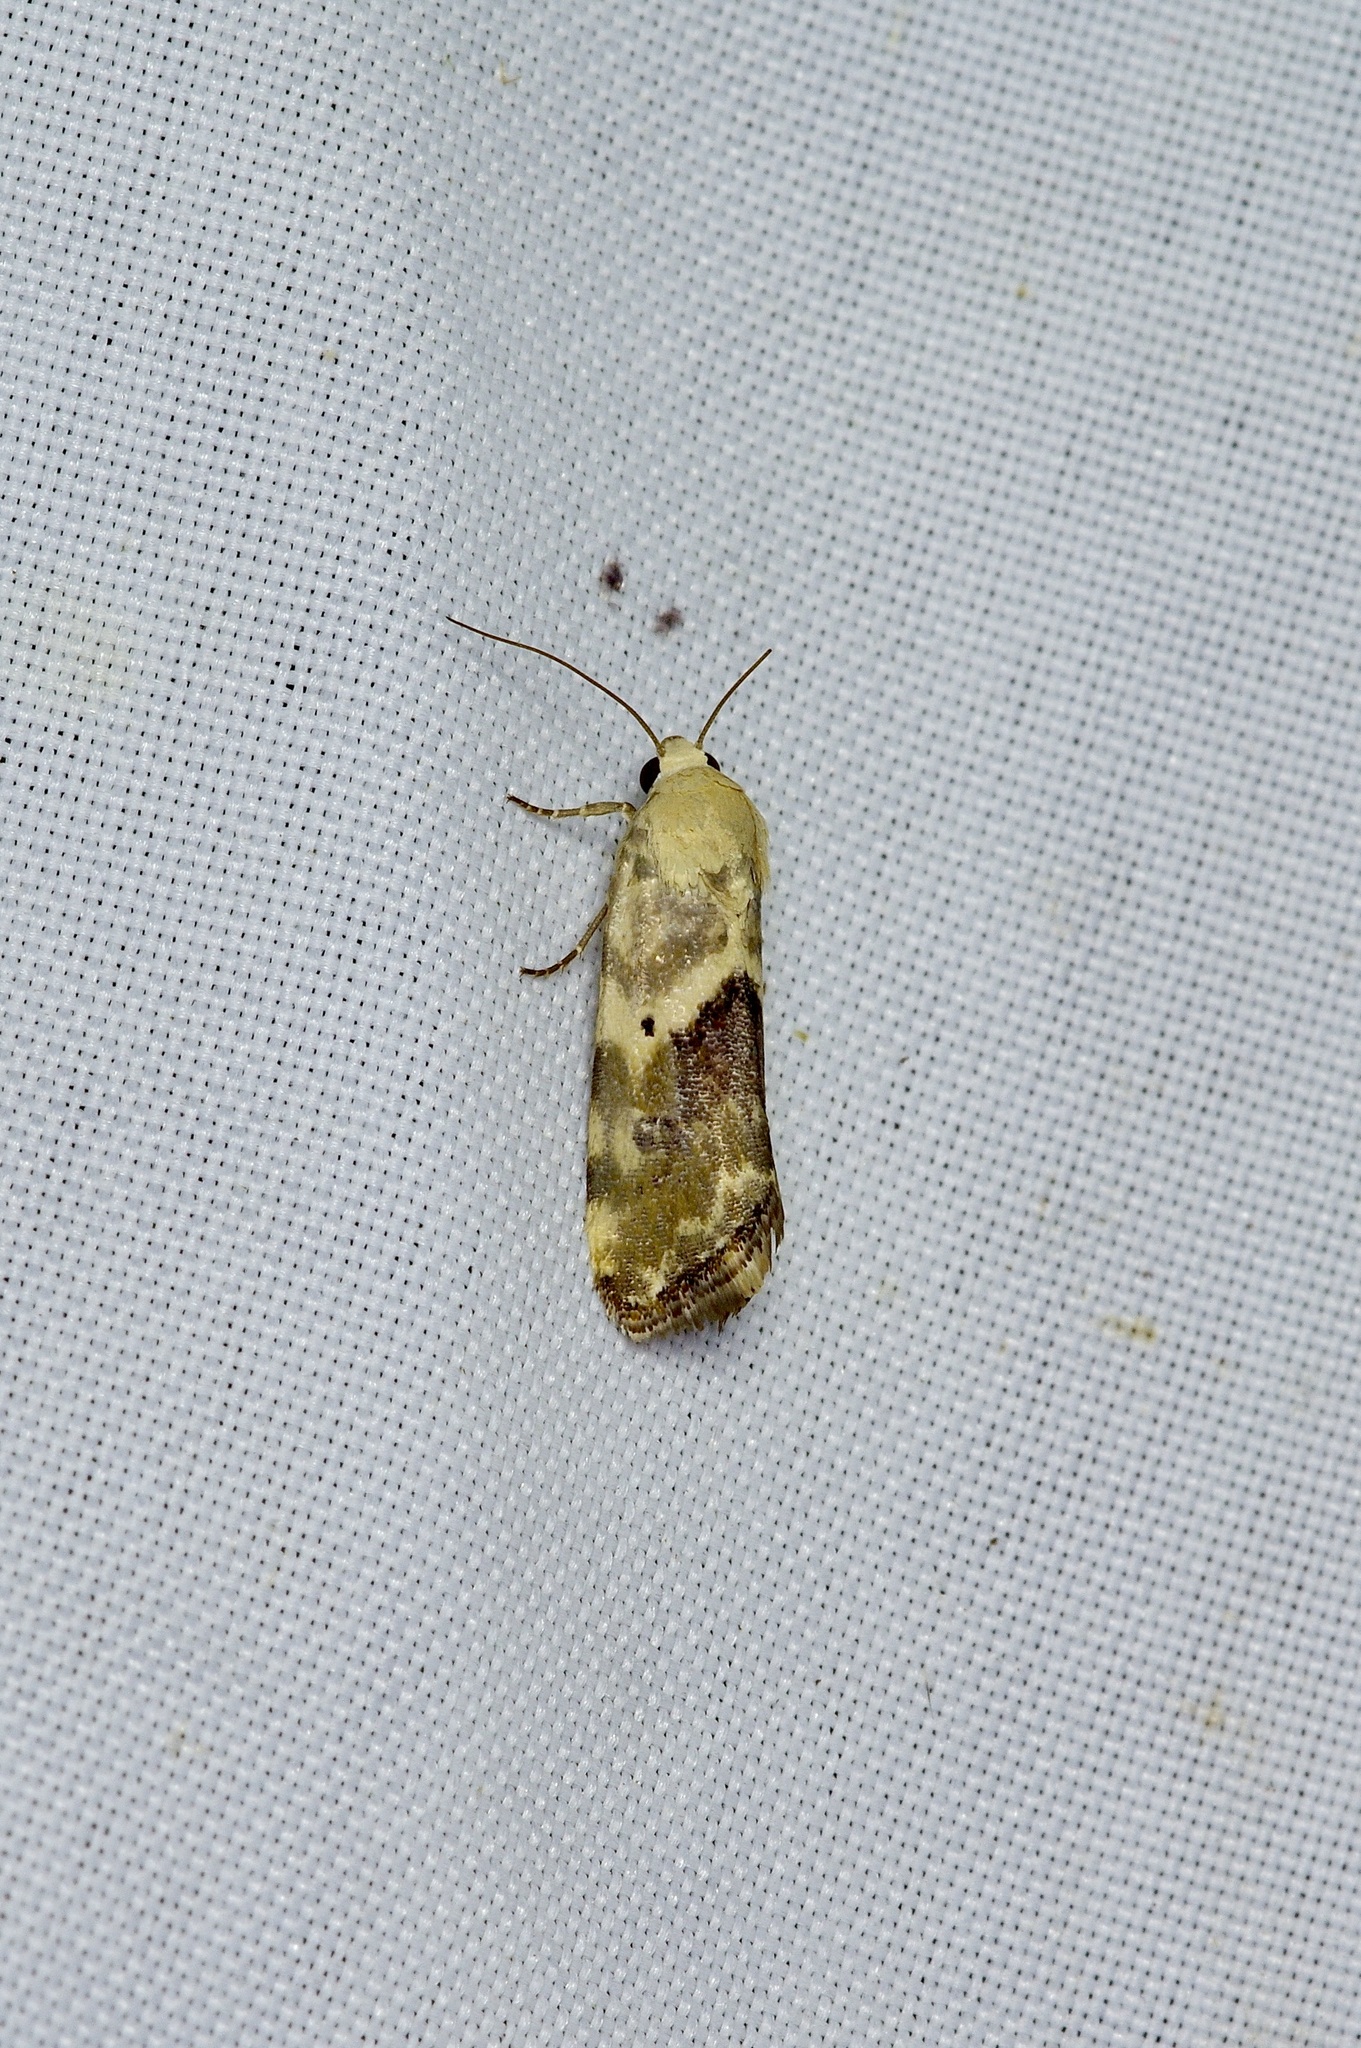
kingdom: Animalia
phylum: Arthropoda
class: Insecta
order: Lepidoptera
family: Noctuidae
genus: Acontia
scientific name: Acontia libedis
